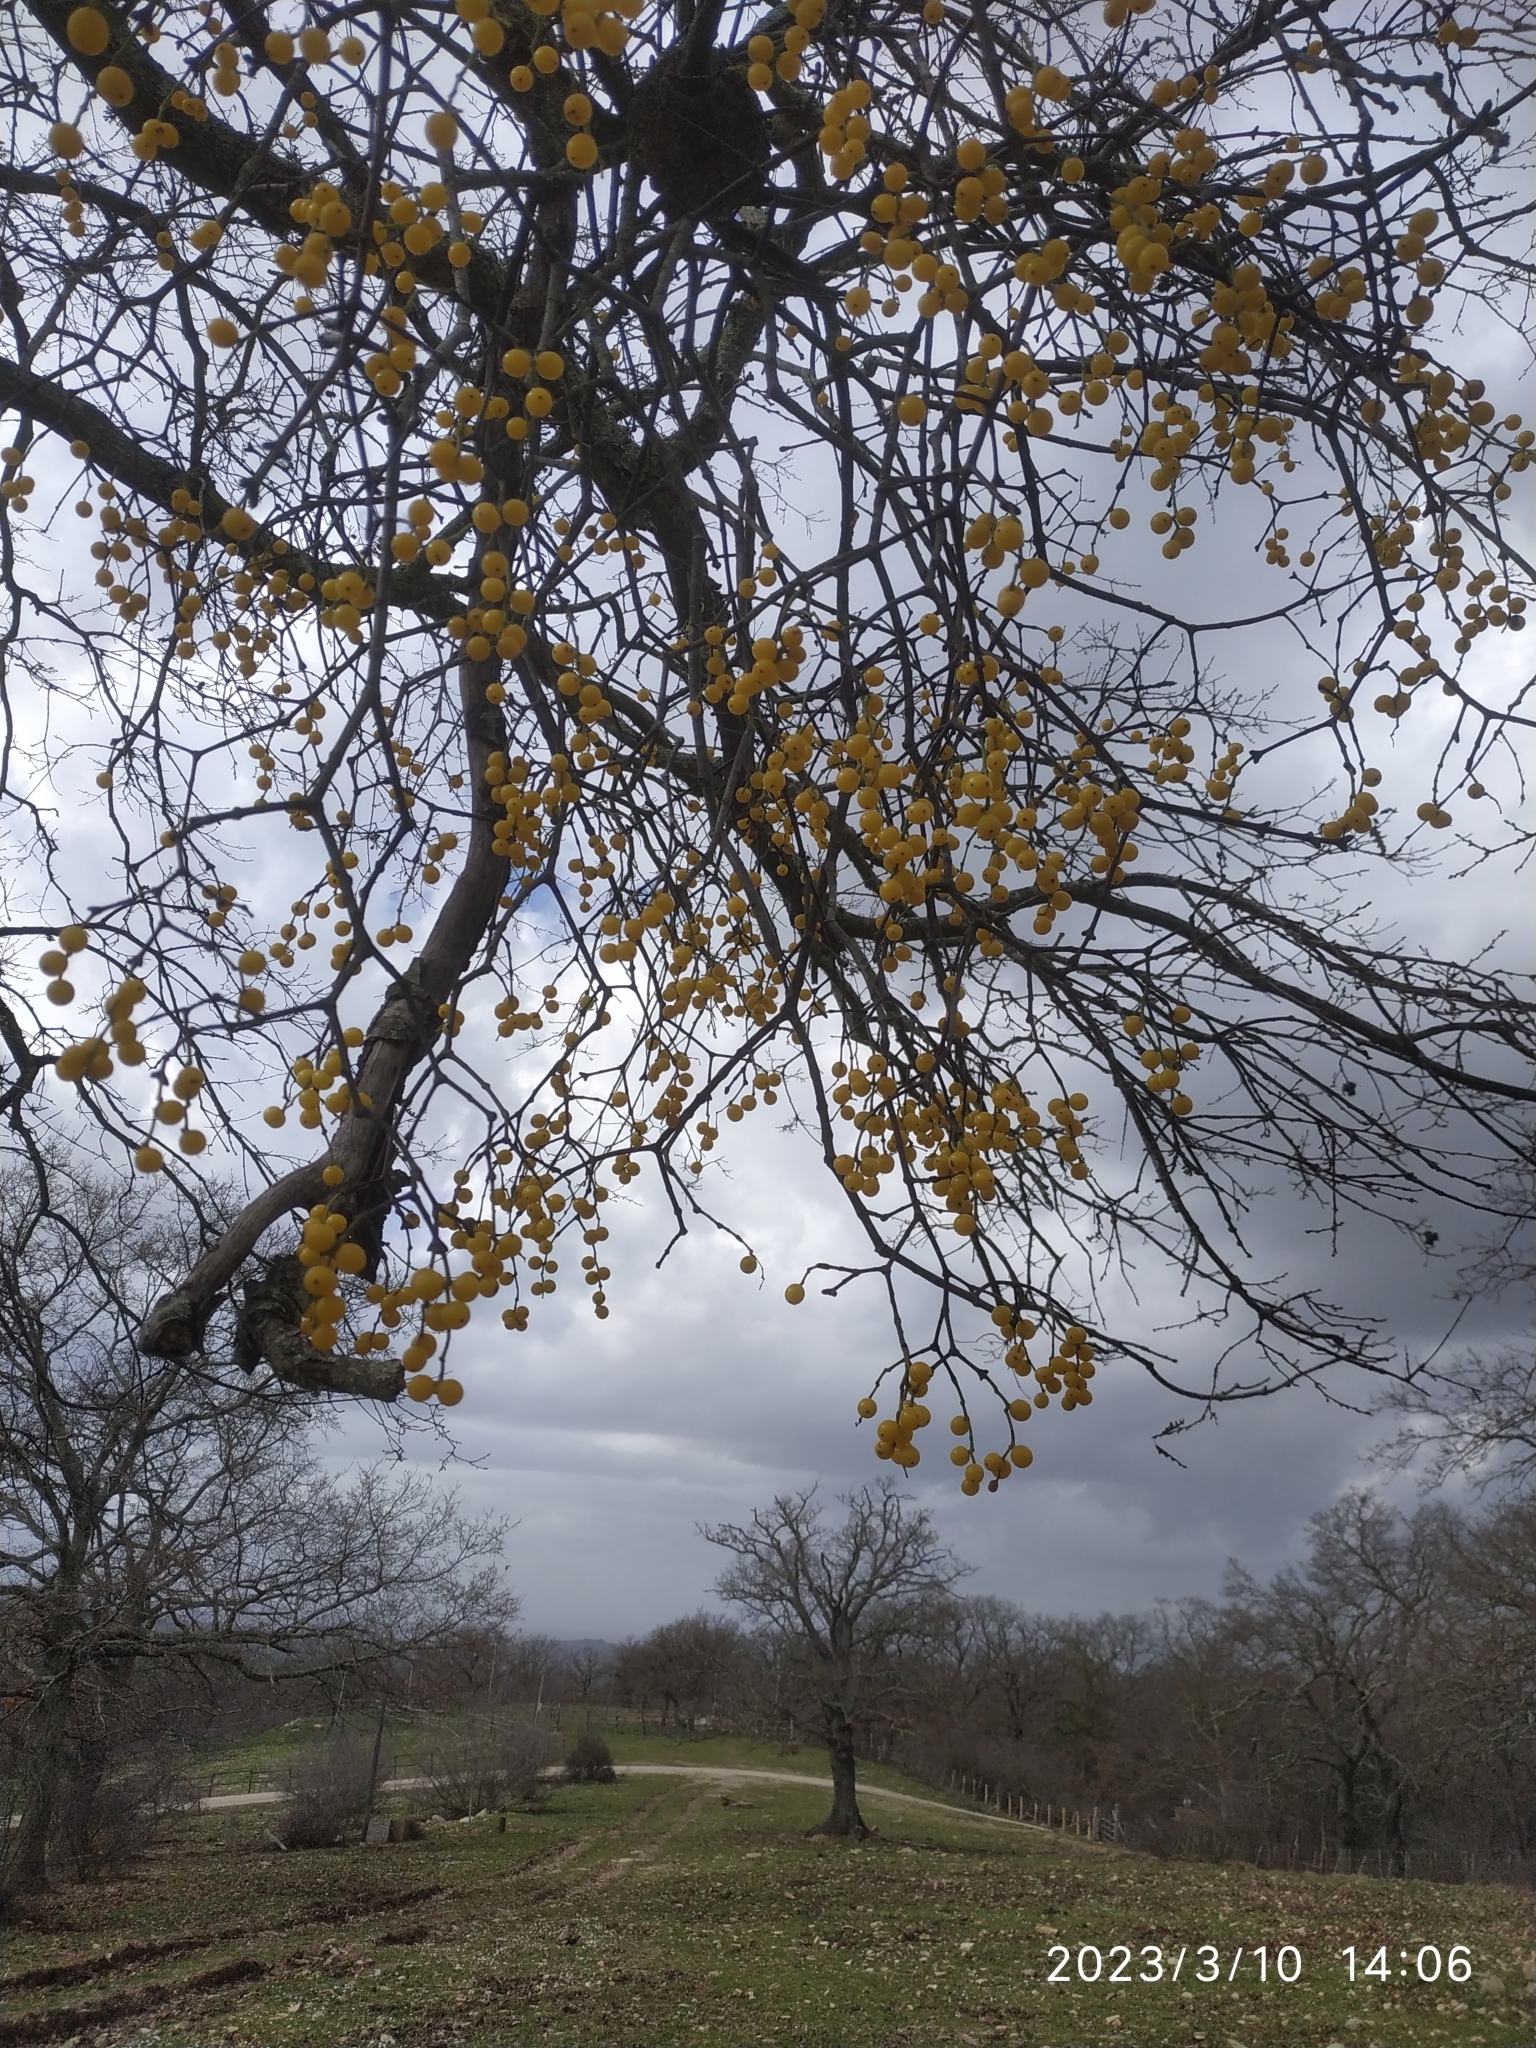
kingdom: Plantae
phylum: Tracheophyta
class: Magnoliopsida
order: Santalales
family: Loranthaceae
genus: Loranthus
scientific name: Loranthus europaeus
